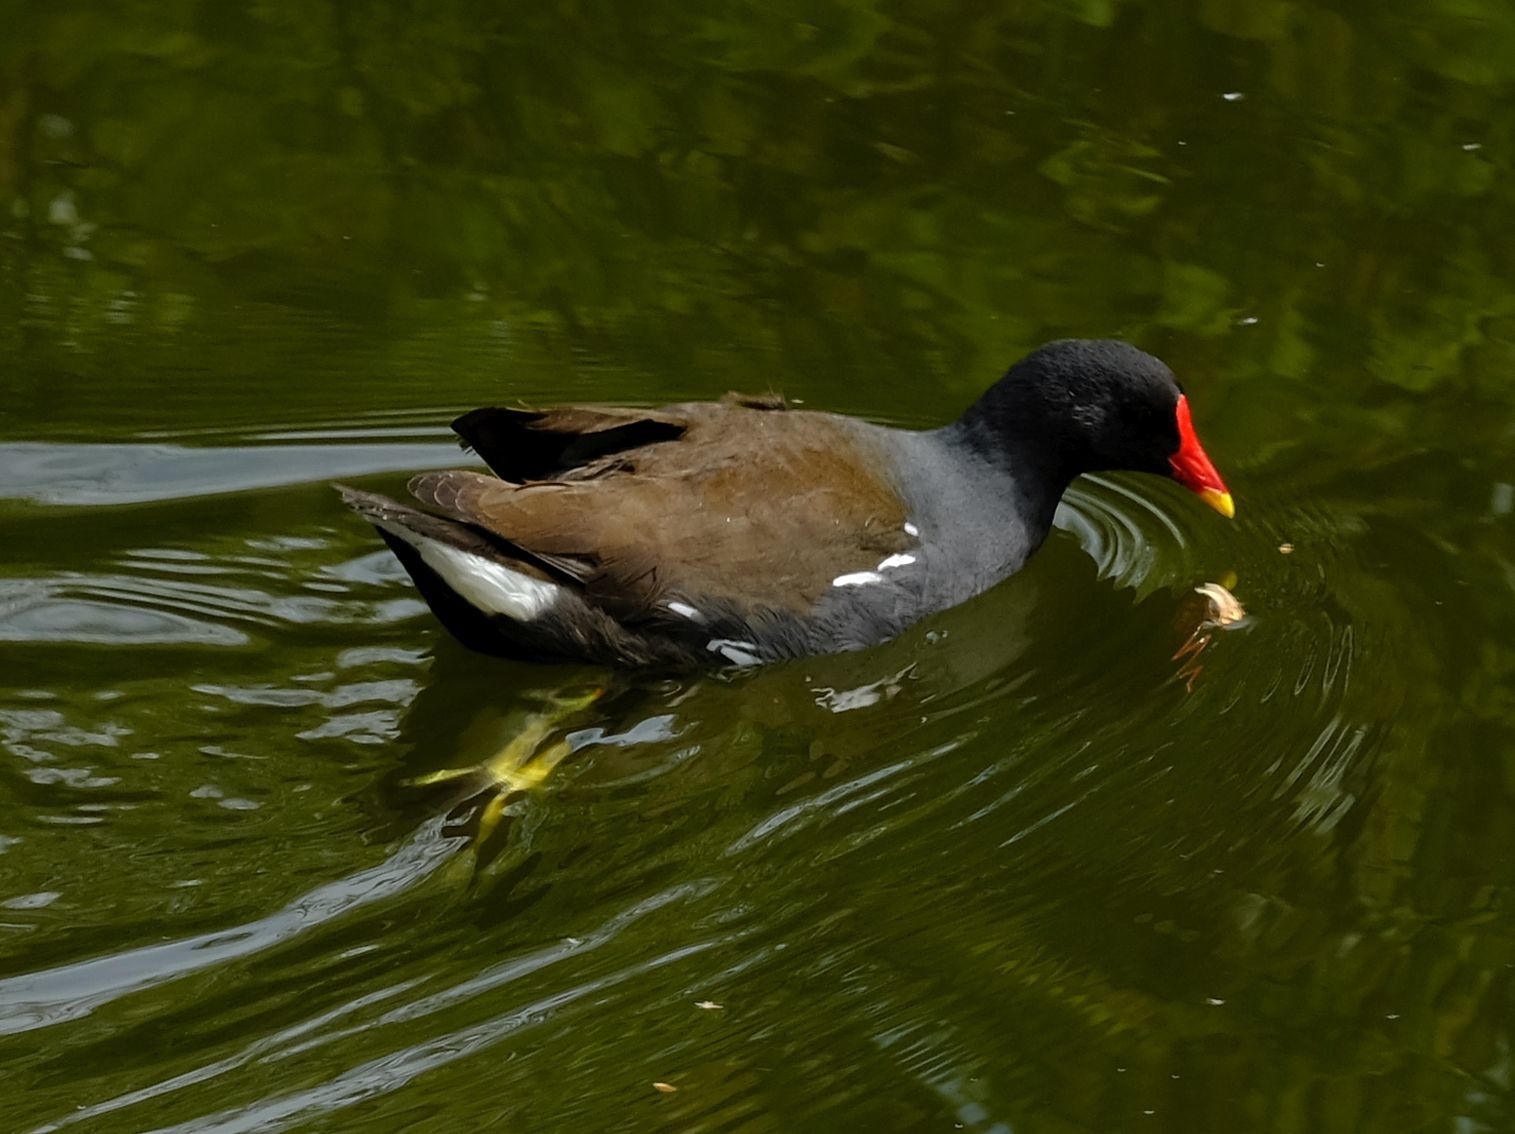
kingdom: Animalia
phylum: Chordata
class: Aves
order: Gruiformes
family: Rallidae
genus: Gallinula
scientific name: Gallinula chloropus
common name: Common moorhen
